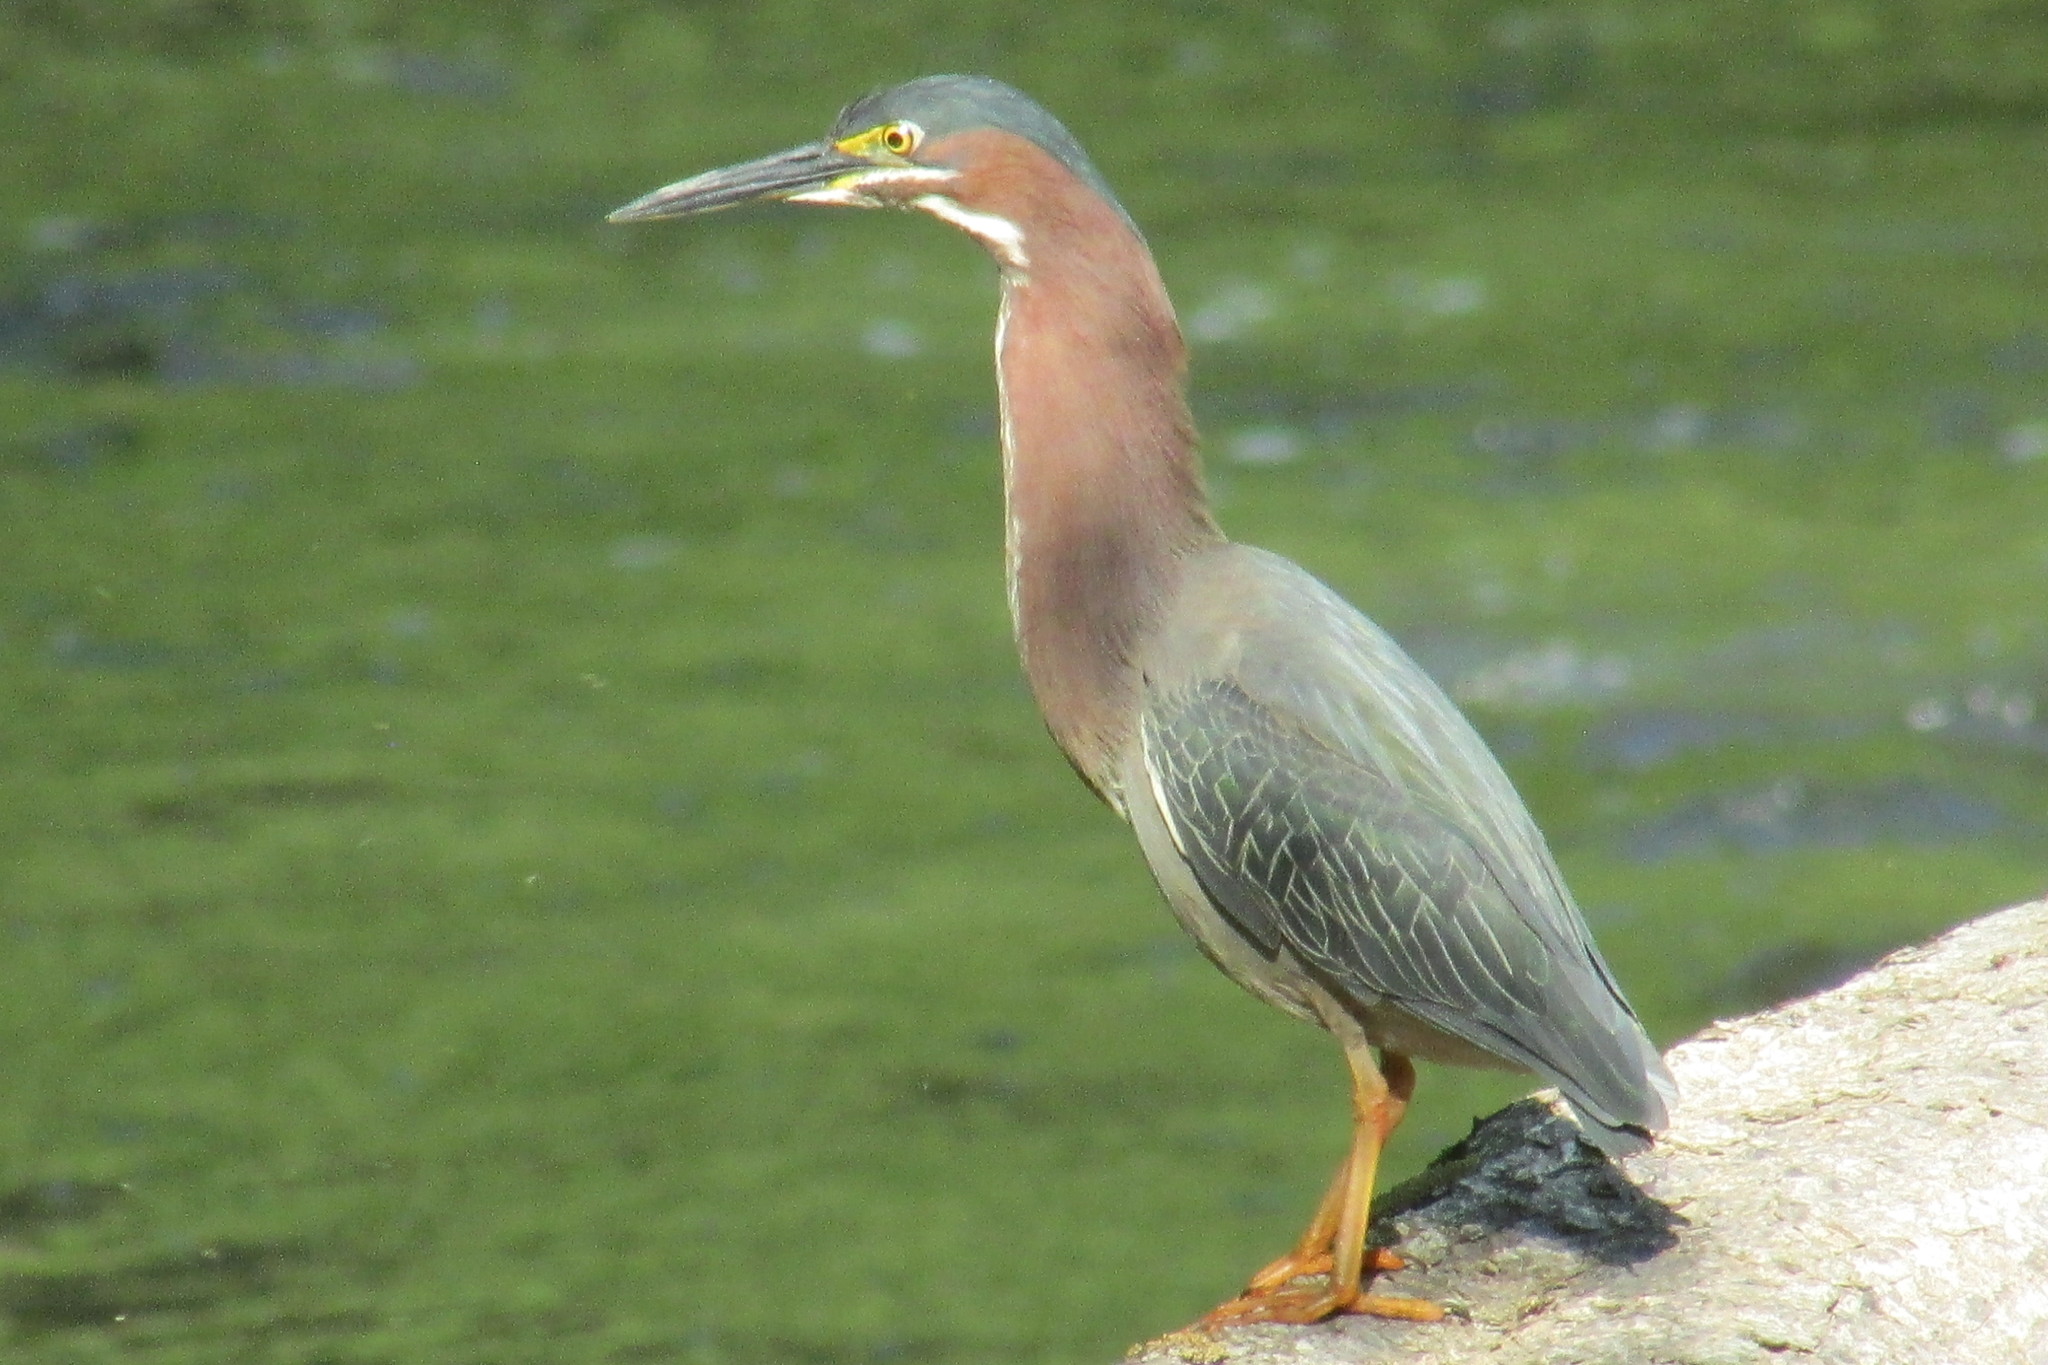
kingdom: Animalia
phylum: Chordata
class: Aves
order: Pelecaniformes
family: Ardeidae
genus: Butorides
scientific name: Butorides virescens
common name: Green heron
